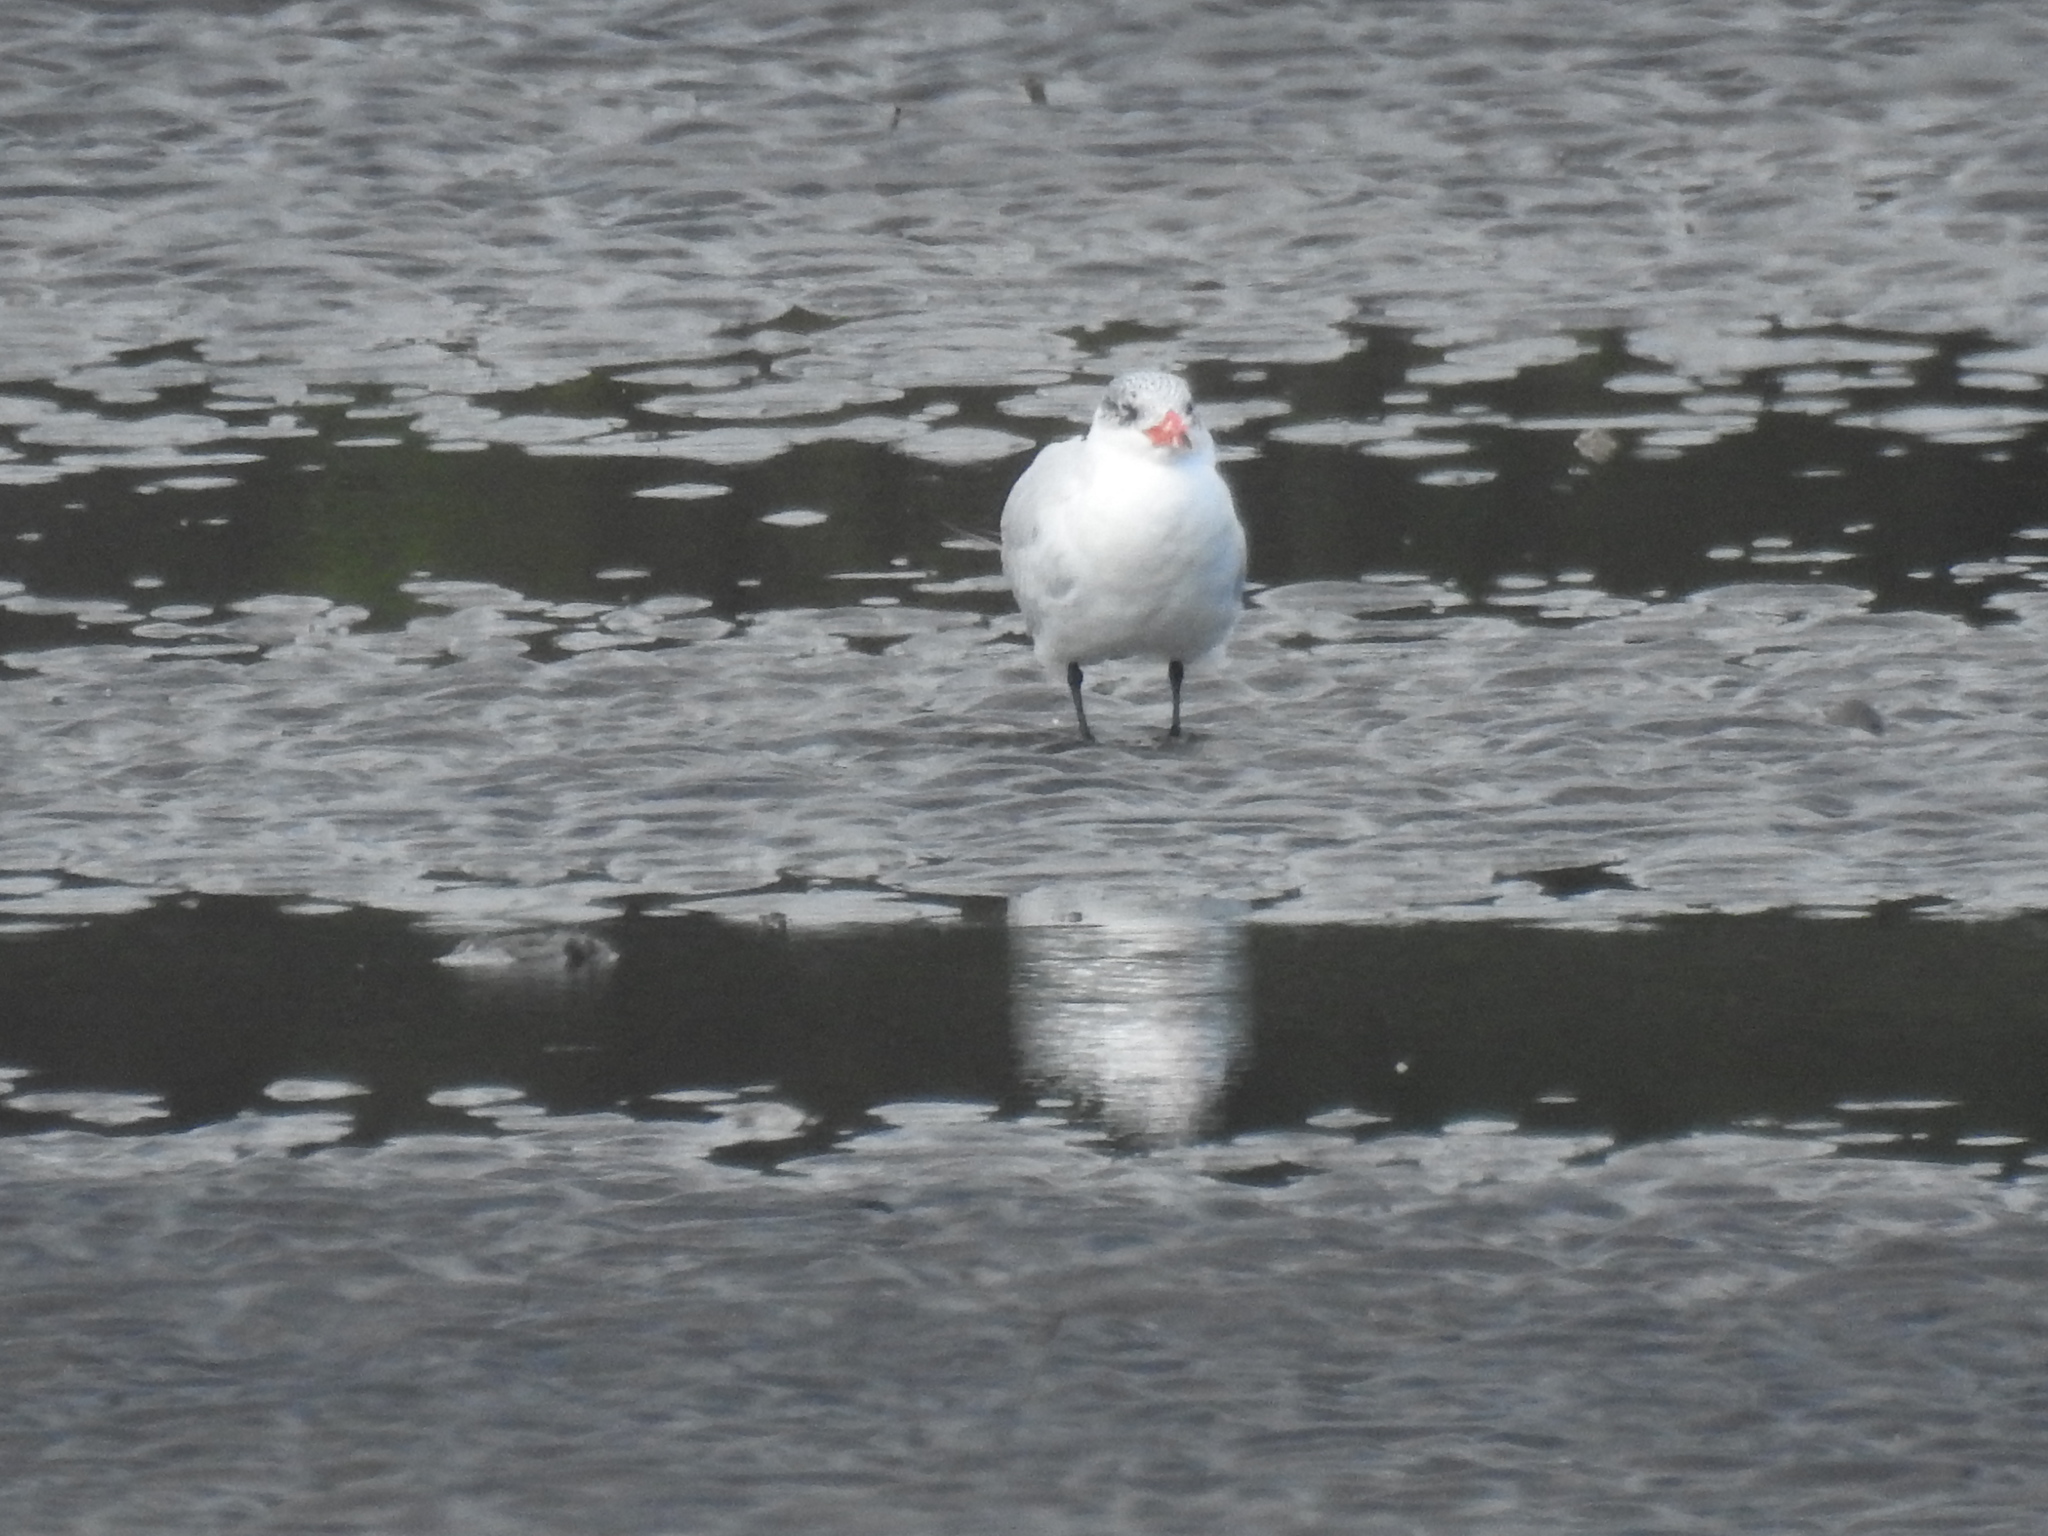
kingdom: Animalia
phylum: Chordata
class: Aves
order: Charadriiformes
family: Laridae
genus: Hydroprogne
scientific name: Hydroprogne caspia
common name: Caspian tern
